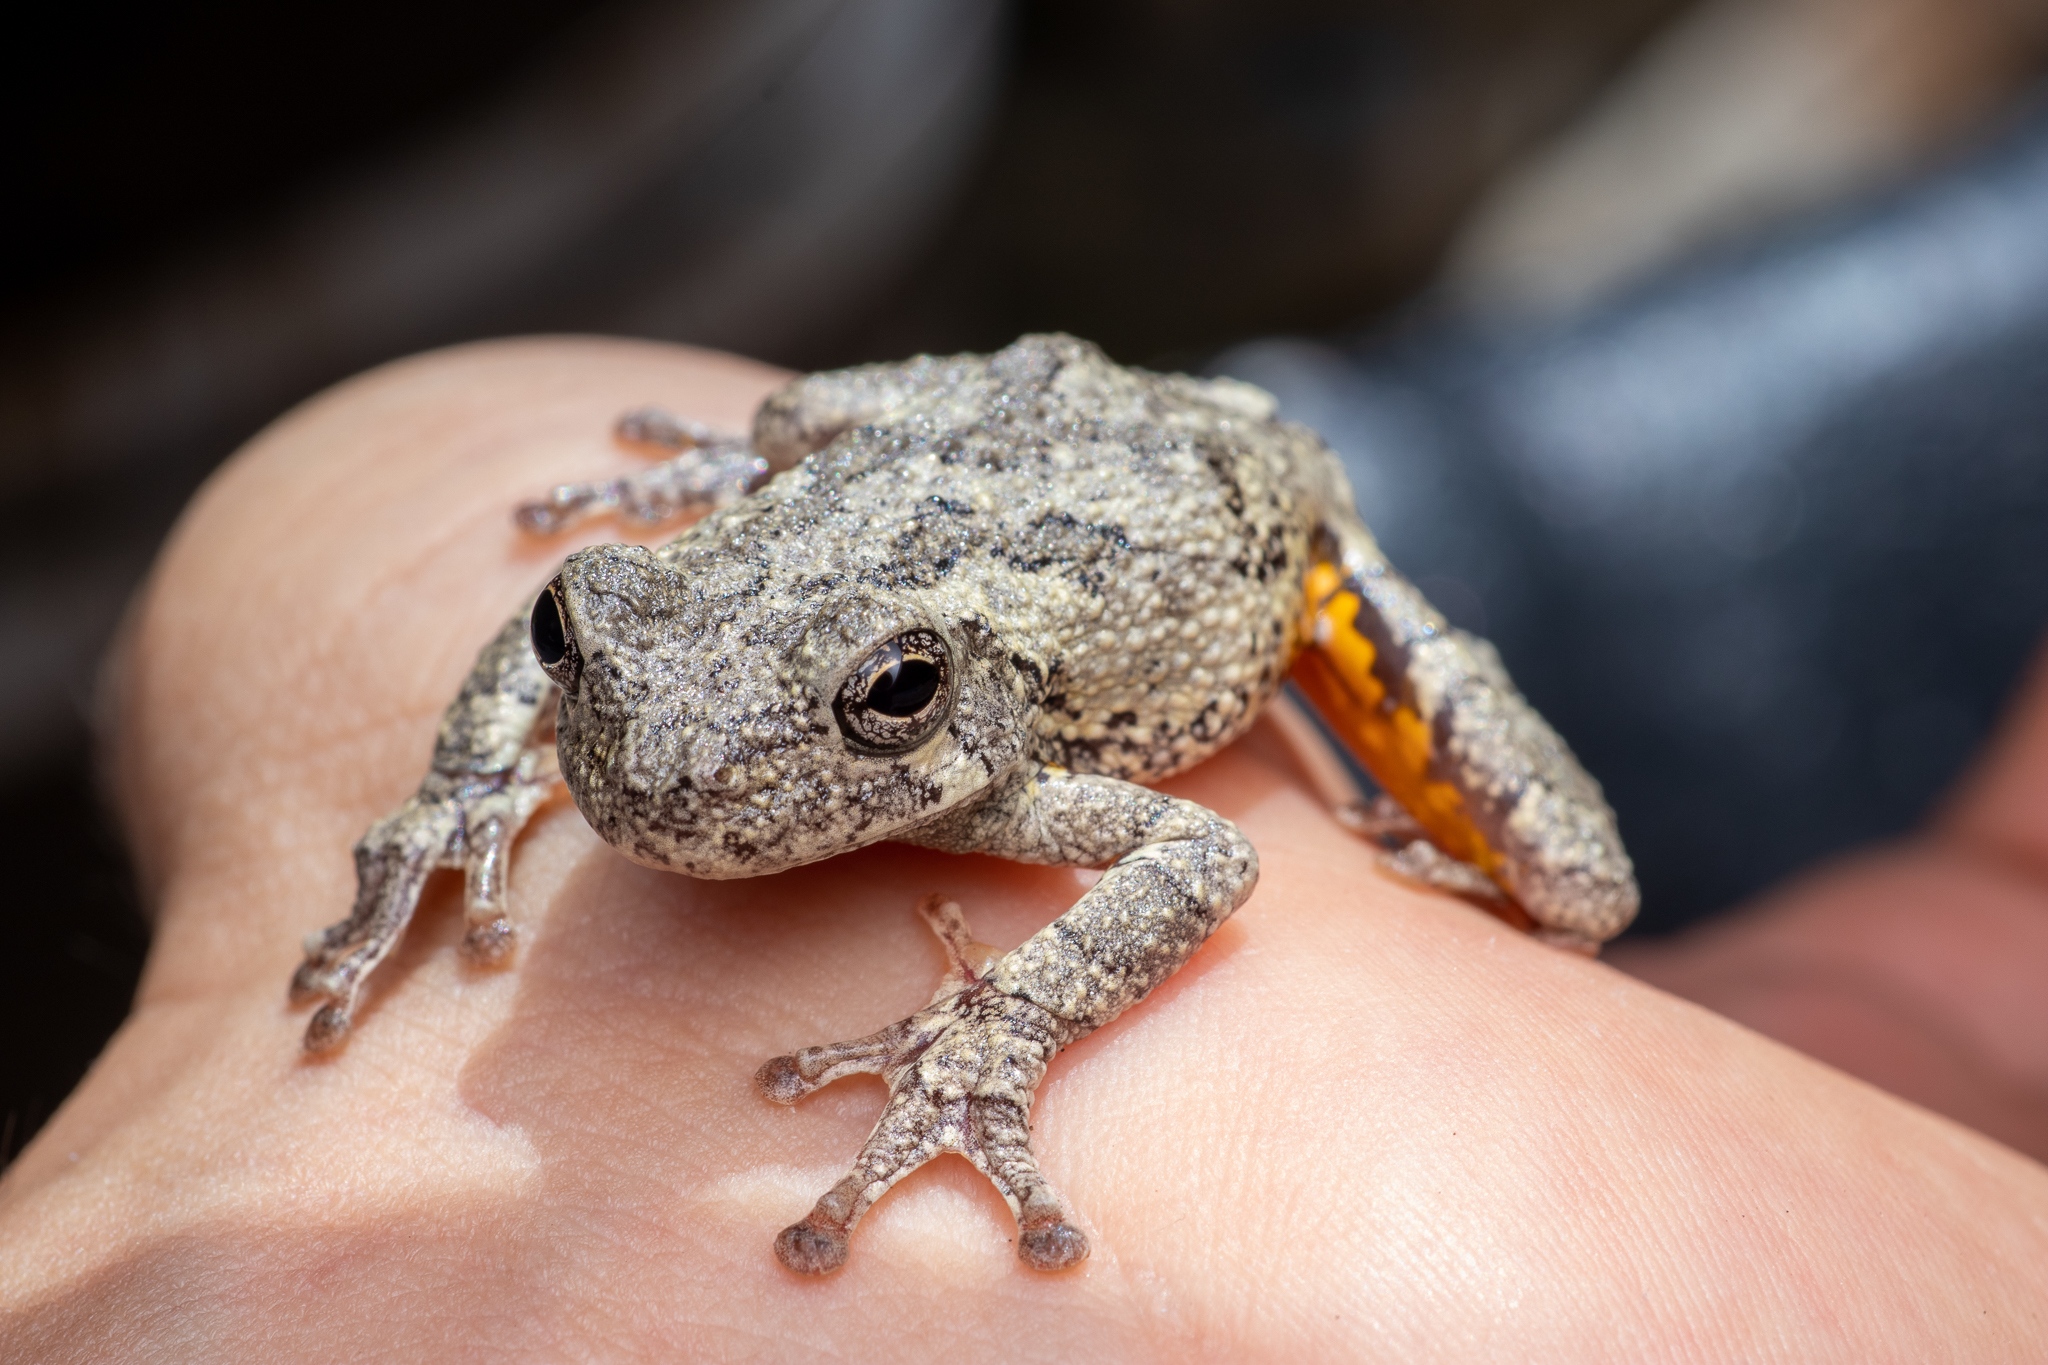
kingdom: Animalia
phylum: Chordata
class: Amphibia
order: Anura
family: Hylidae
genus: Dryophytes
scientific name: Dryophytes chrysoscelis
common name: Cope's gray treefrog
